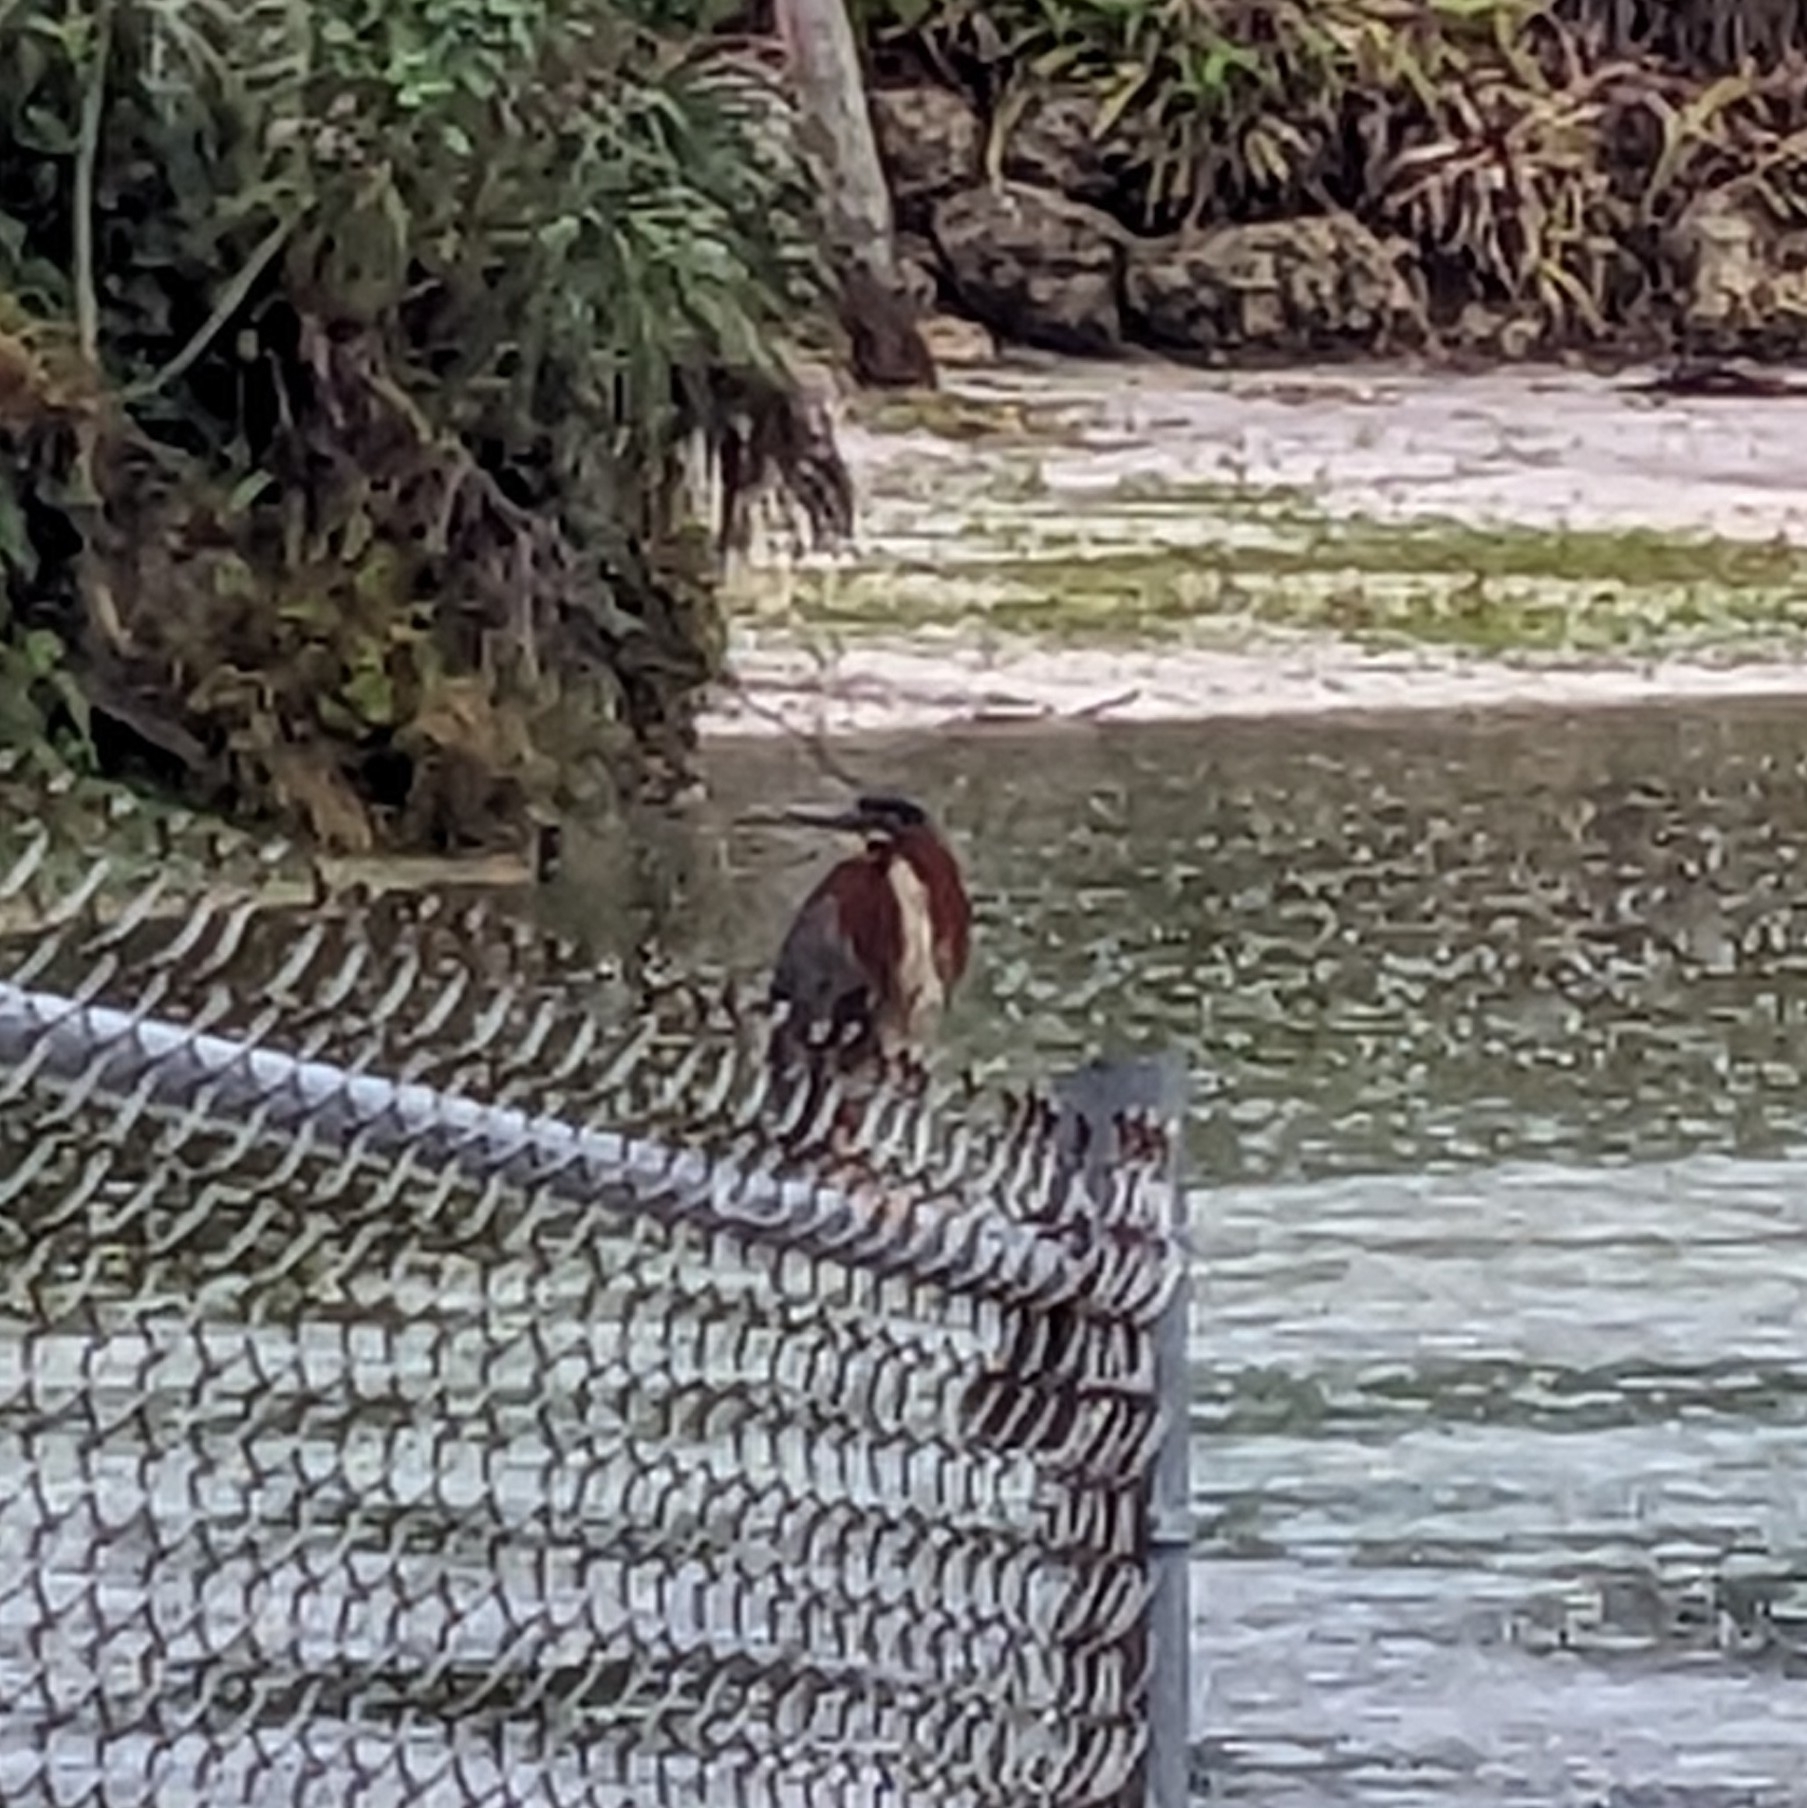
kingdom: Animalia
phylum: Chordata
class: Aves
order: Pelecaniformes
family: Ardeidae
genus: Butorides
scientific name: Butorides virescens
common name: Green heron
